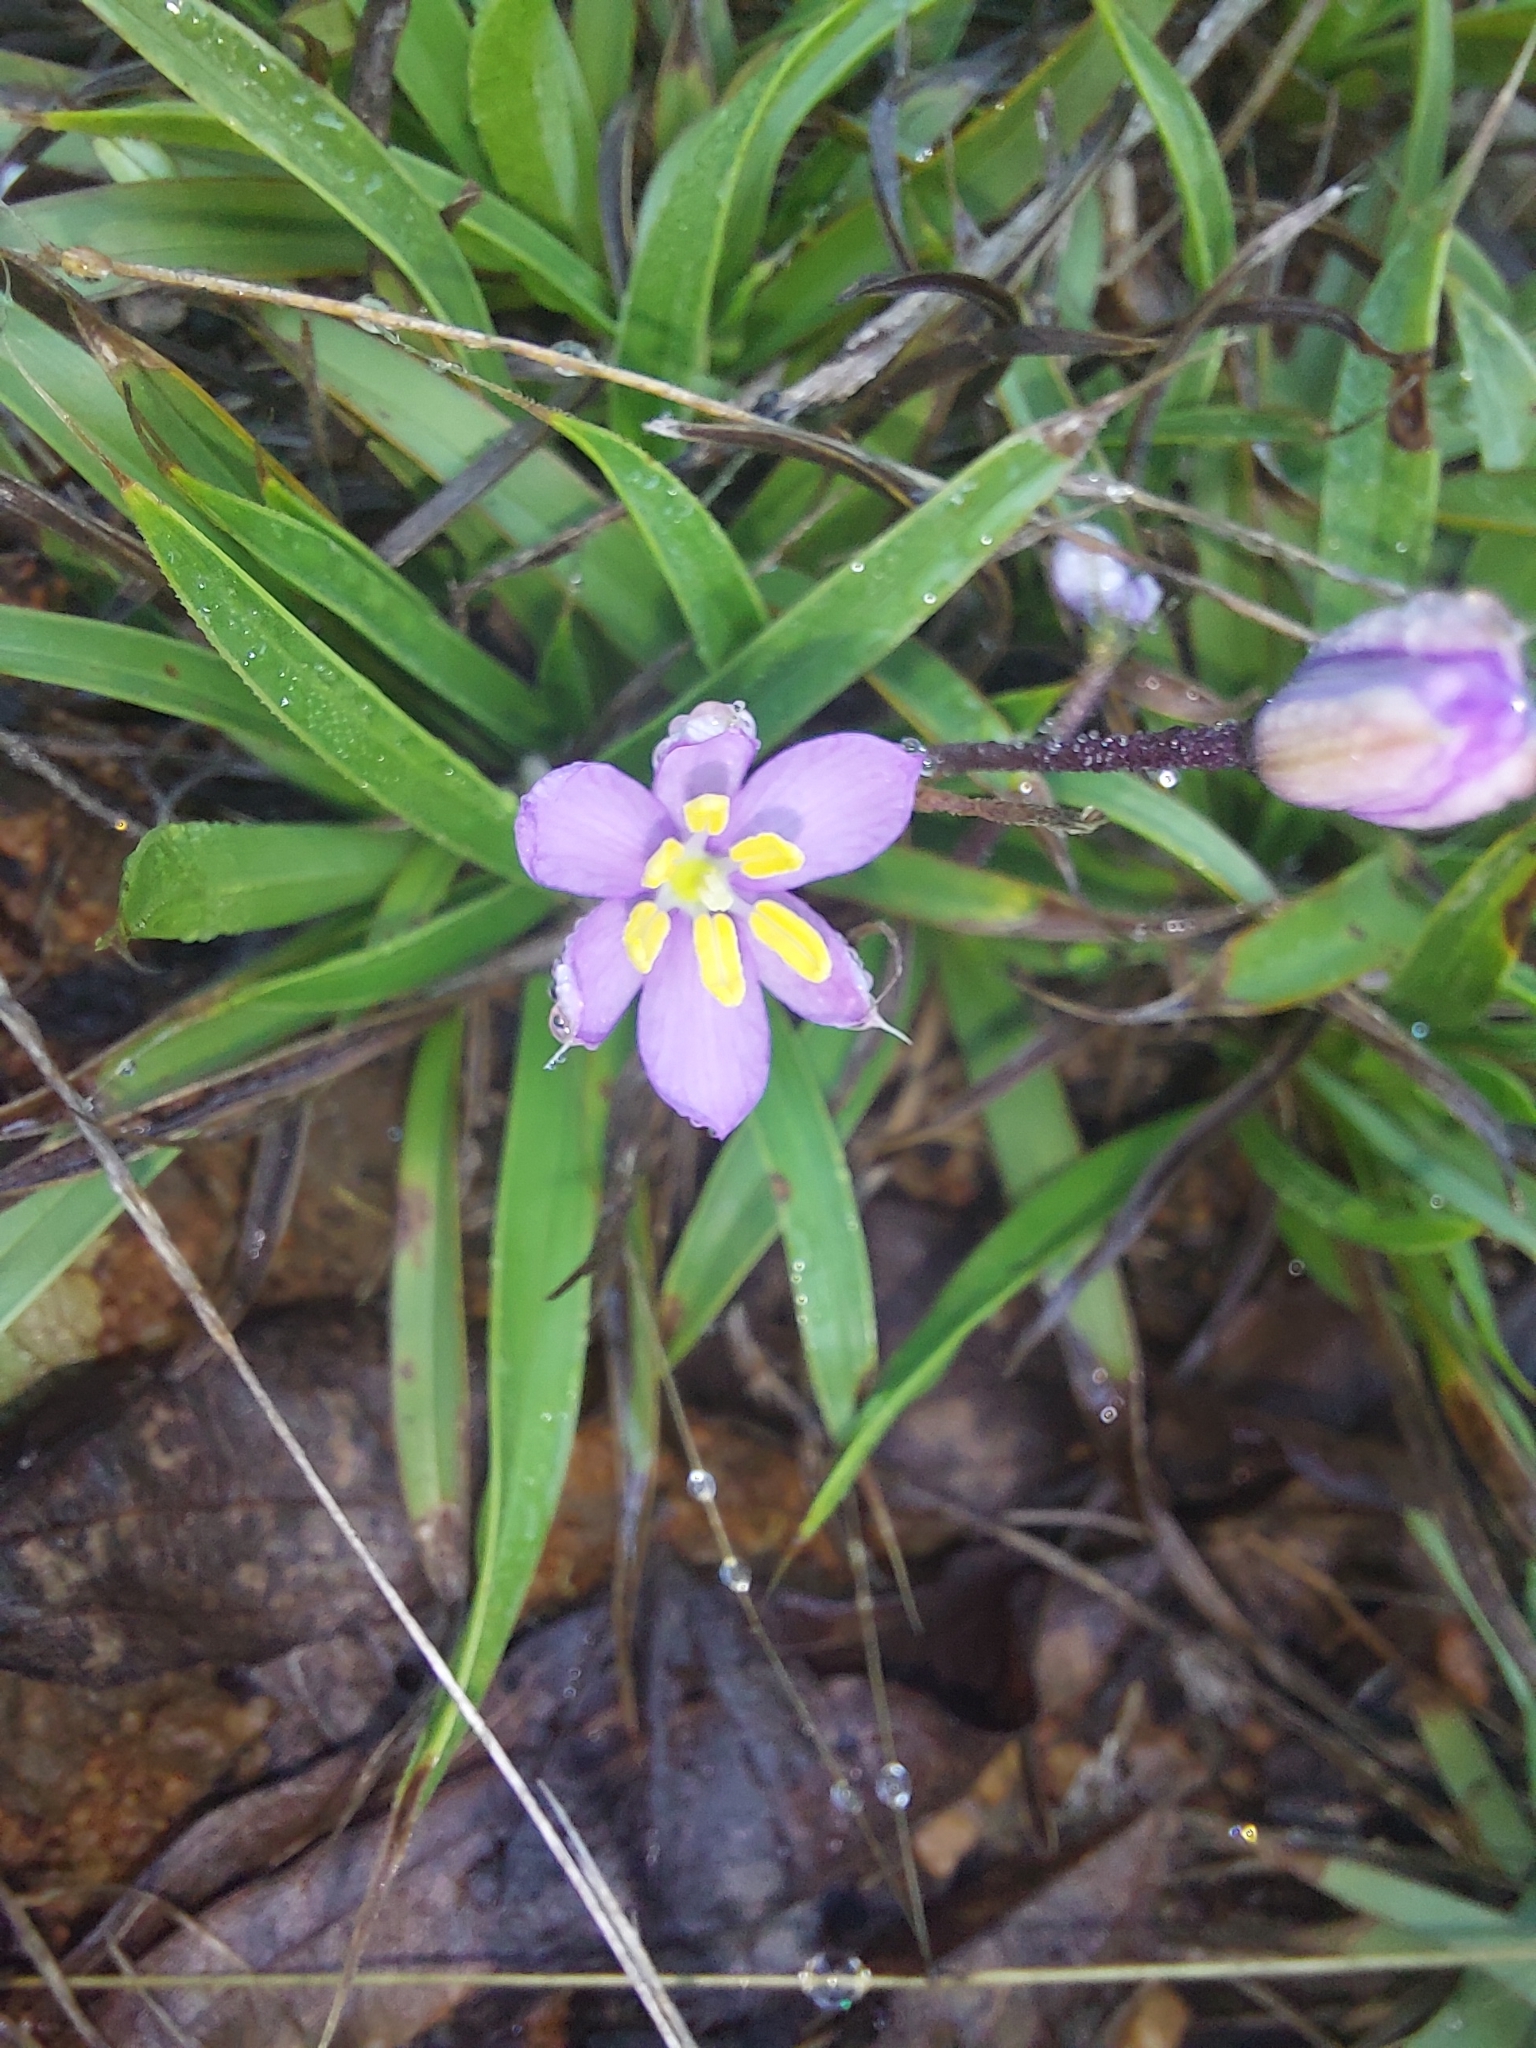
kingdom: Plantae
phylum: Tracheophyta
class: Liliopsida
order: Pandanales
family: Velloziaceae
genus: Xerophyta
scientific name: Xerophyta humilis
